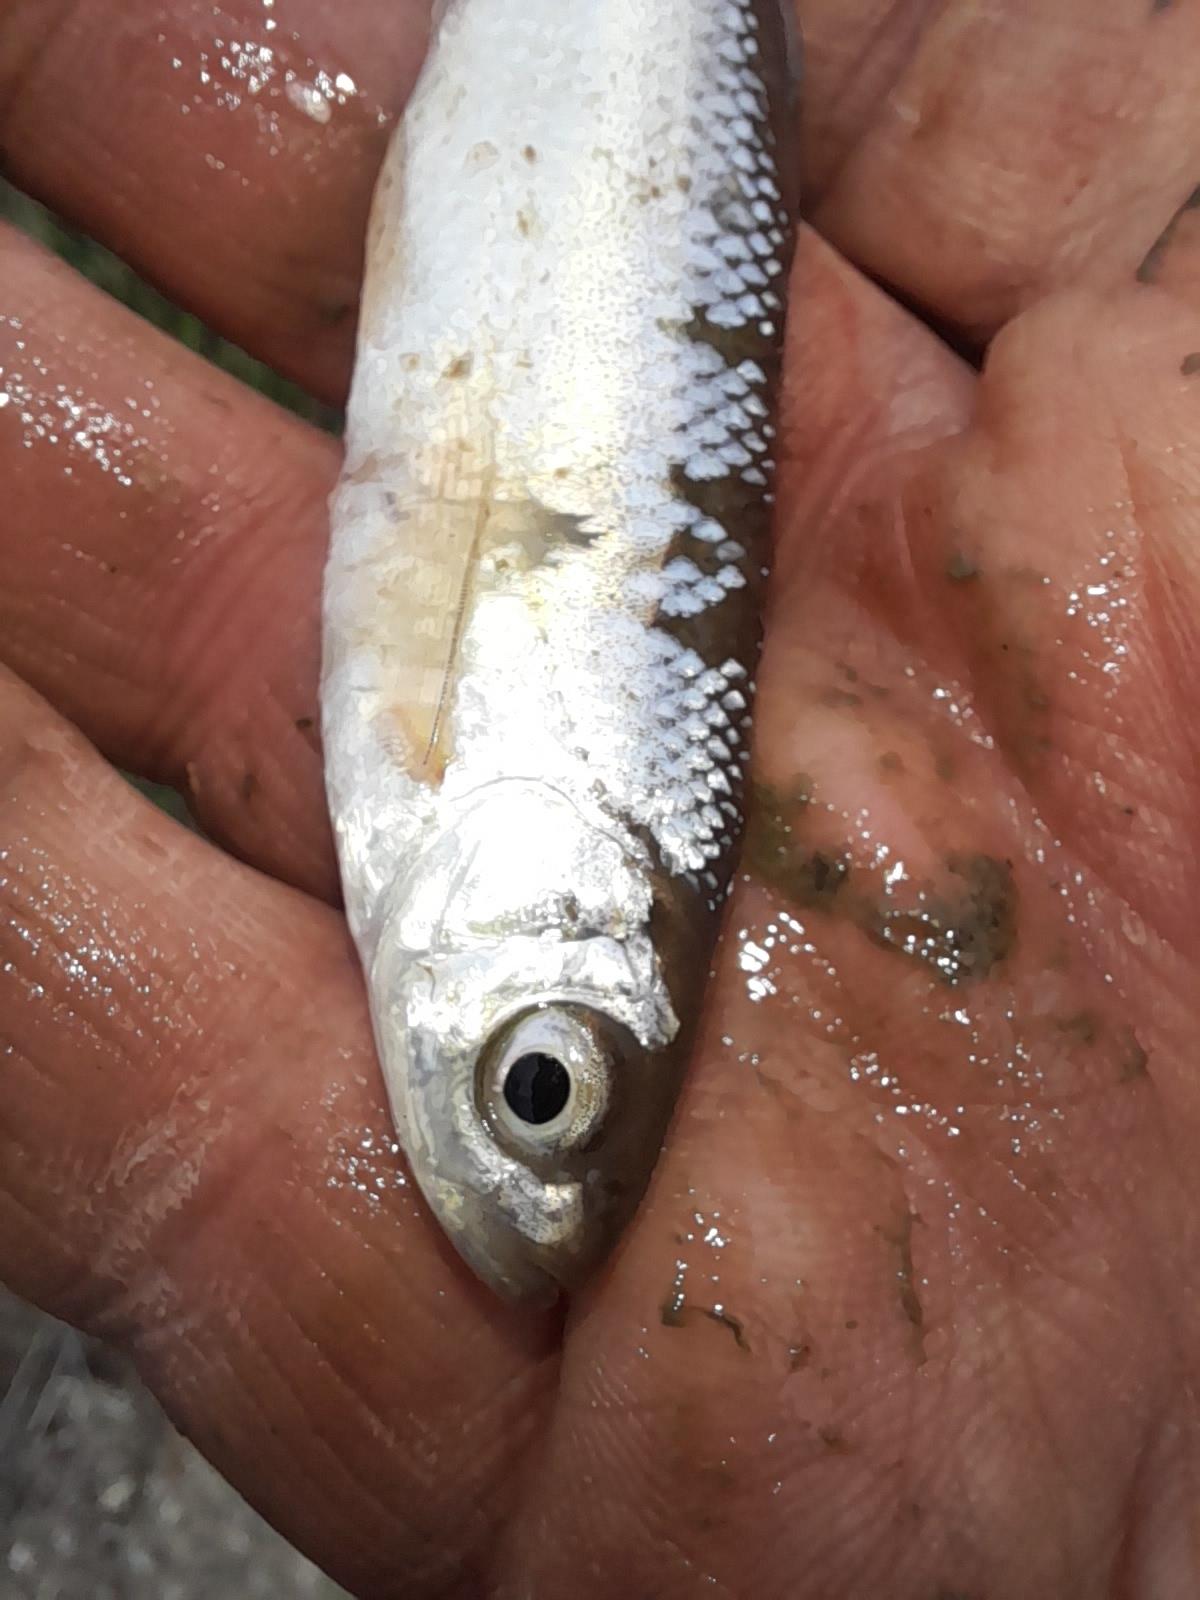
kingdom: Animalia
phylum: Chordata
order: Cypriniformes
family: Cyprinidae
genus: Alburnus
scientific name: Alburnus arborella
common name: Alborella
